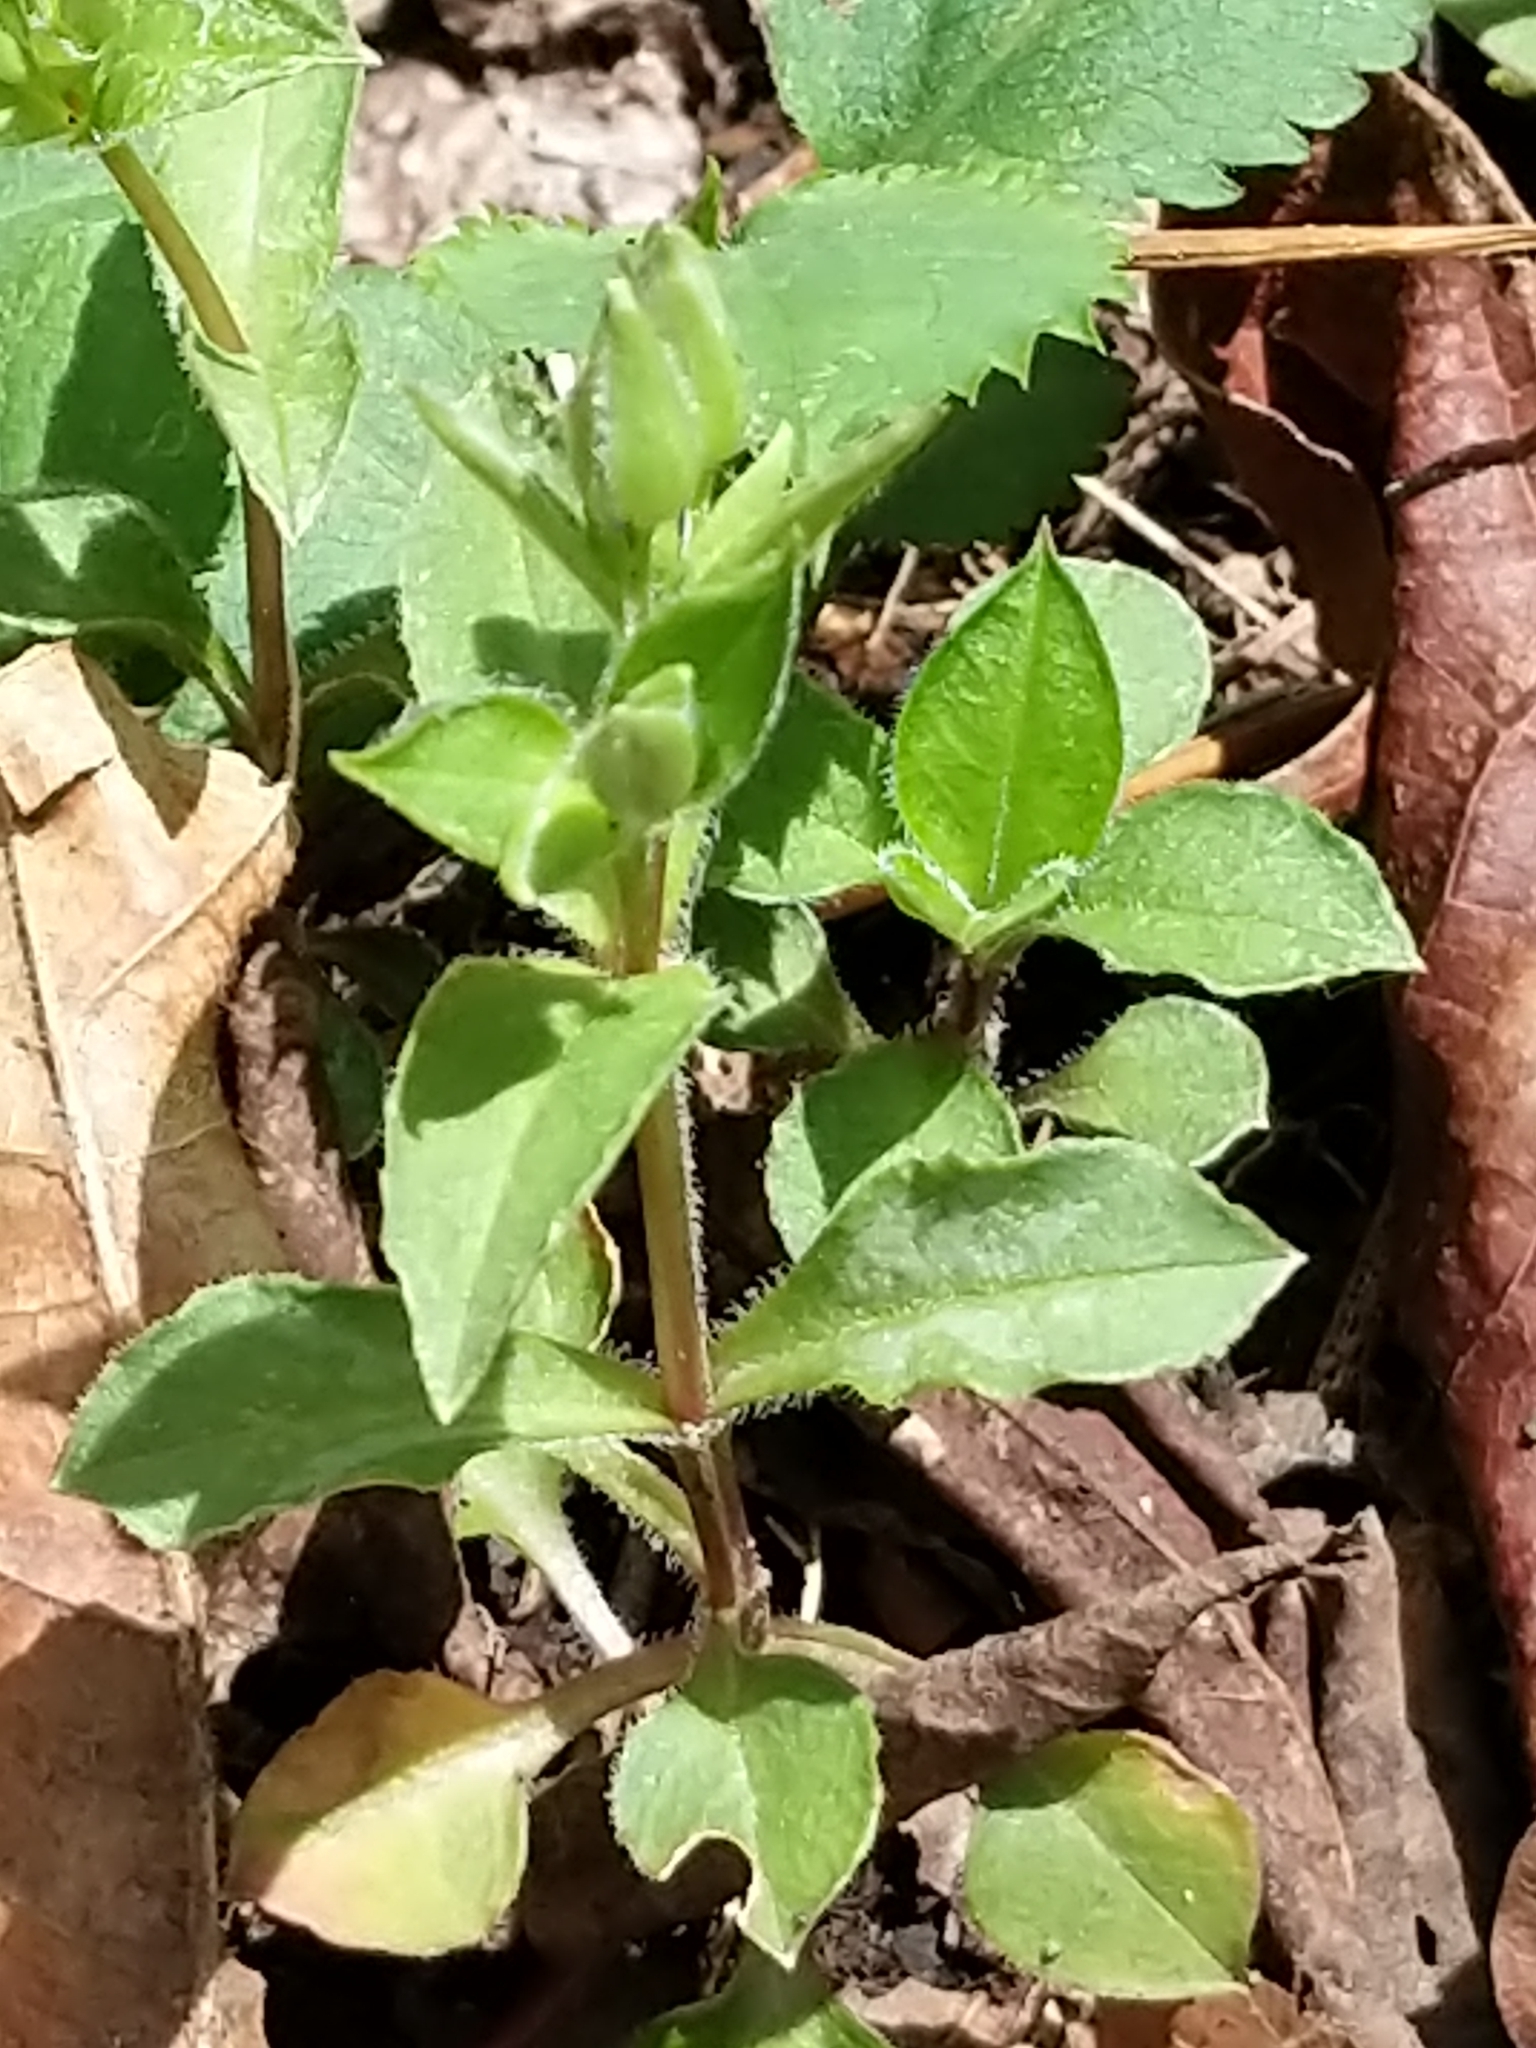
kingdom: Plantae
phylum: Tracheophyta
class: Magnoliopsida
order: Caryophyllales
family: Caryophyllaceae
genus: Stellaria
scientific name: Stellaria pubera
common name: Star chickweed
